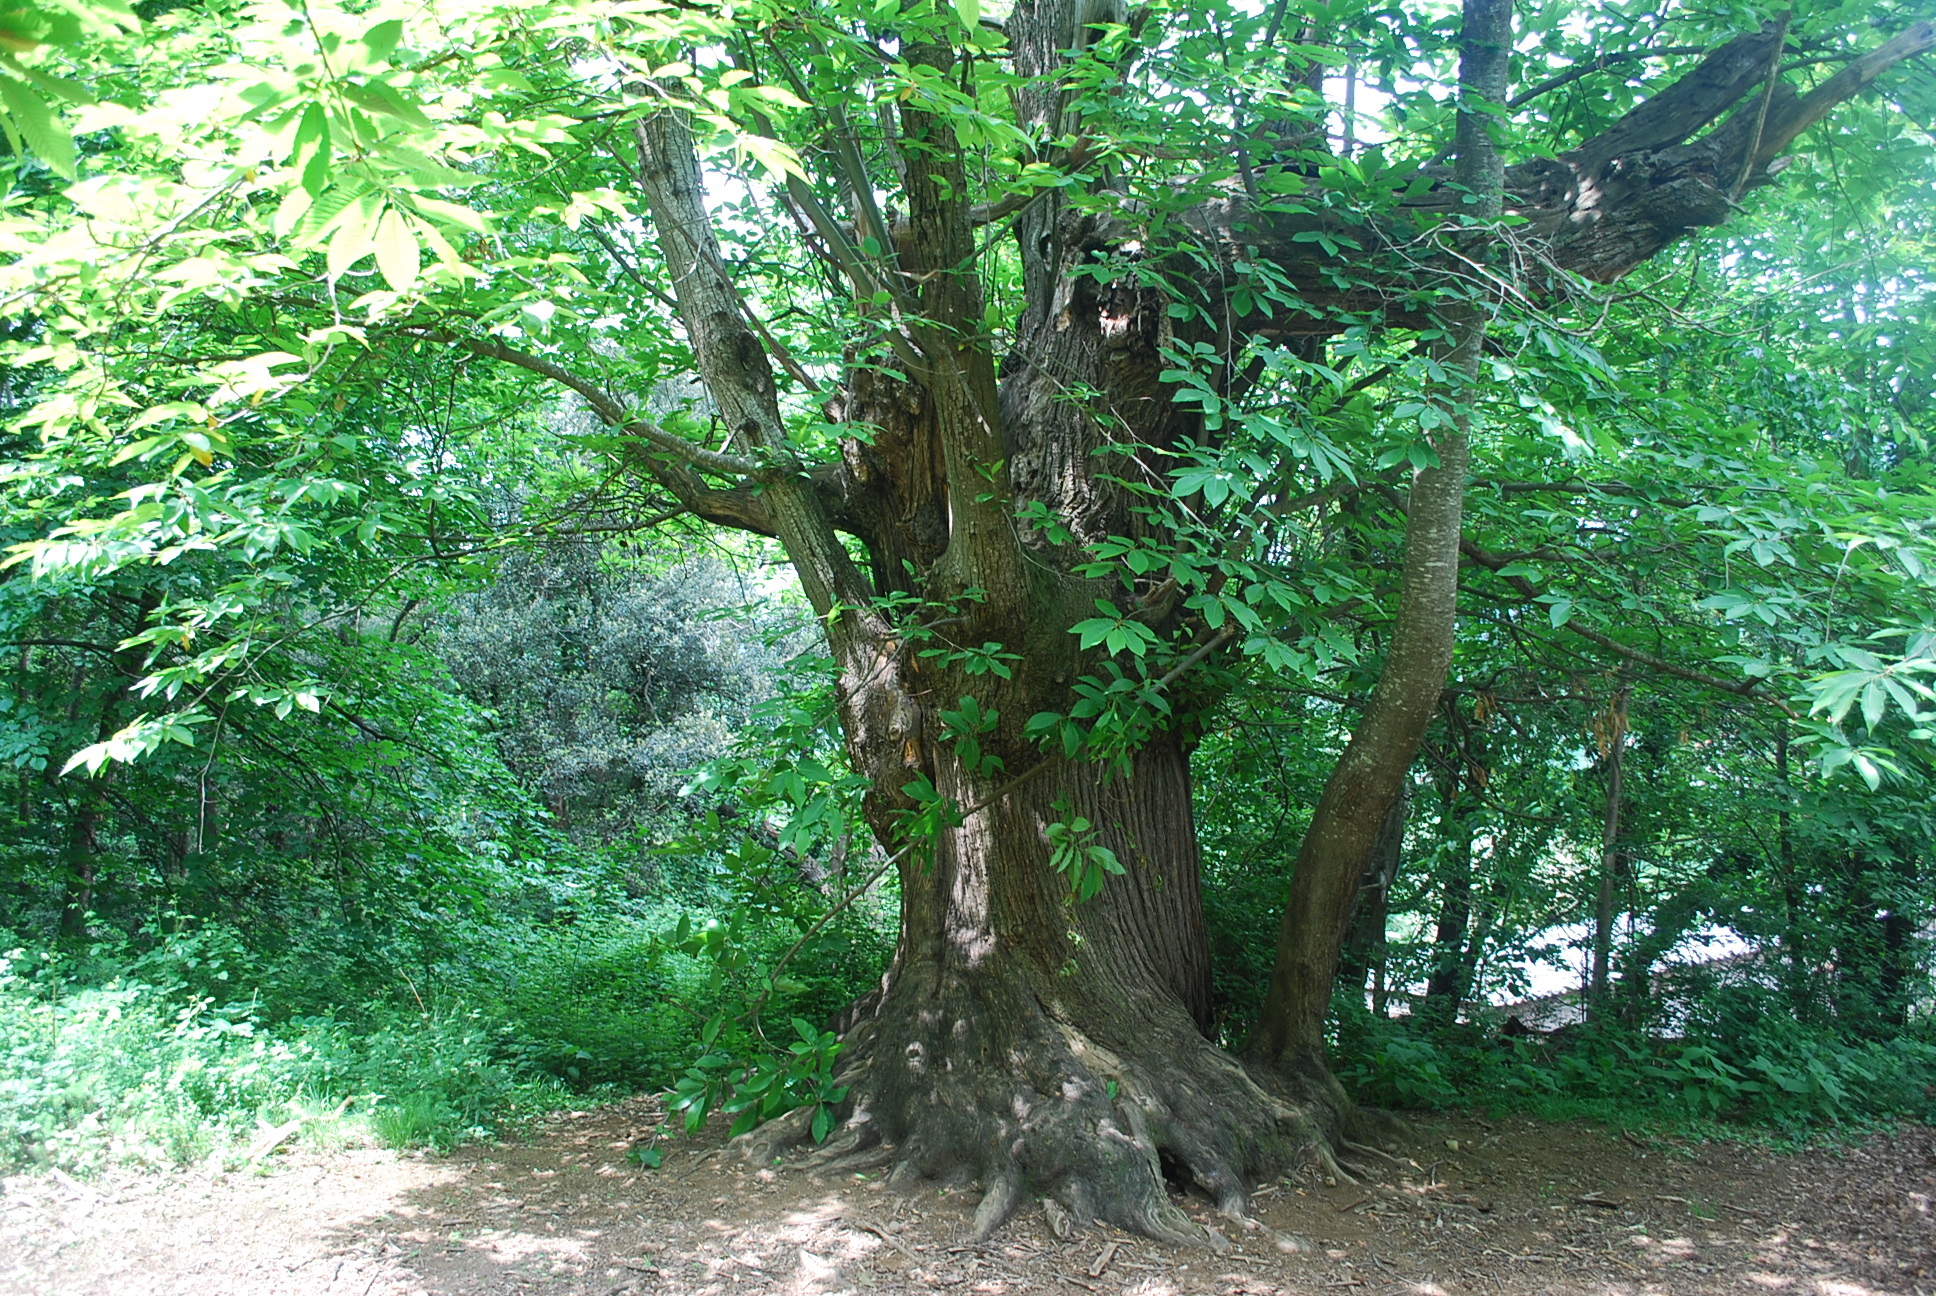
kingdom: Plantae
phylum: Tracheophyta
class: Magnoliopsida
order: Fagales
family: Fagaceae
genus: Castanea
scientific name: Castanea sativa
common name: Sweet chestnut
